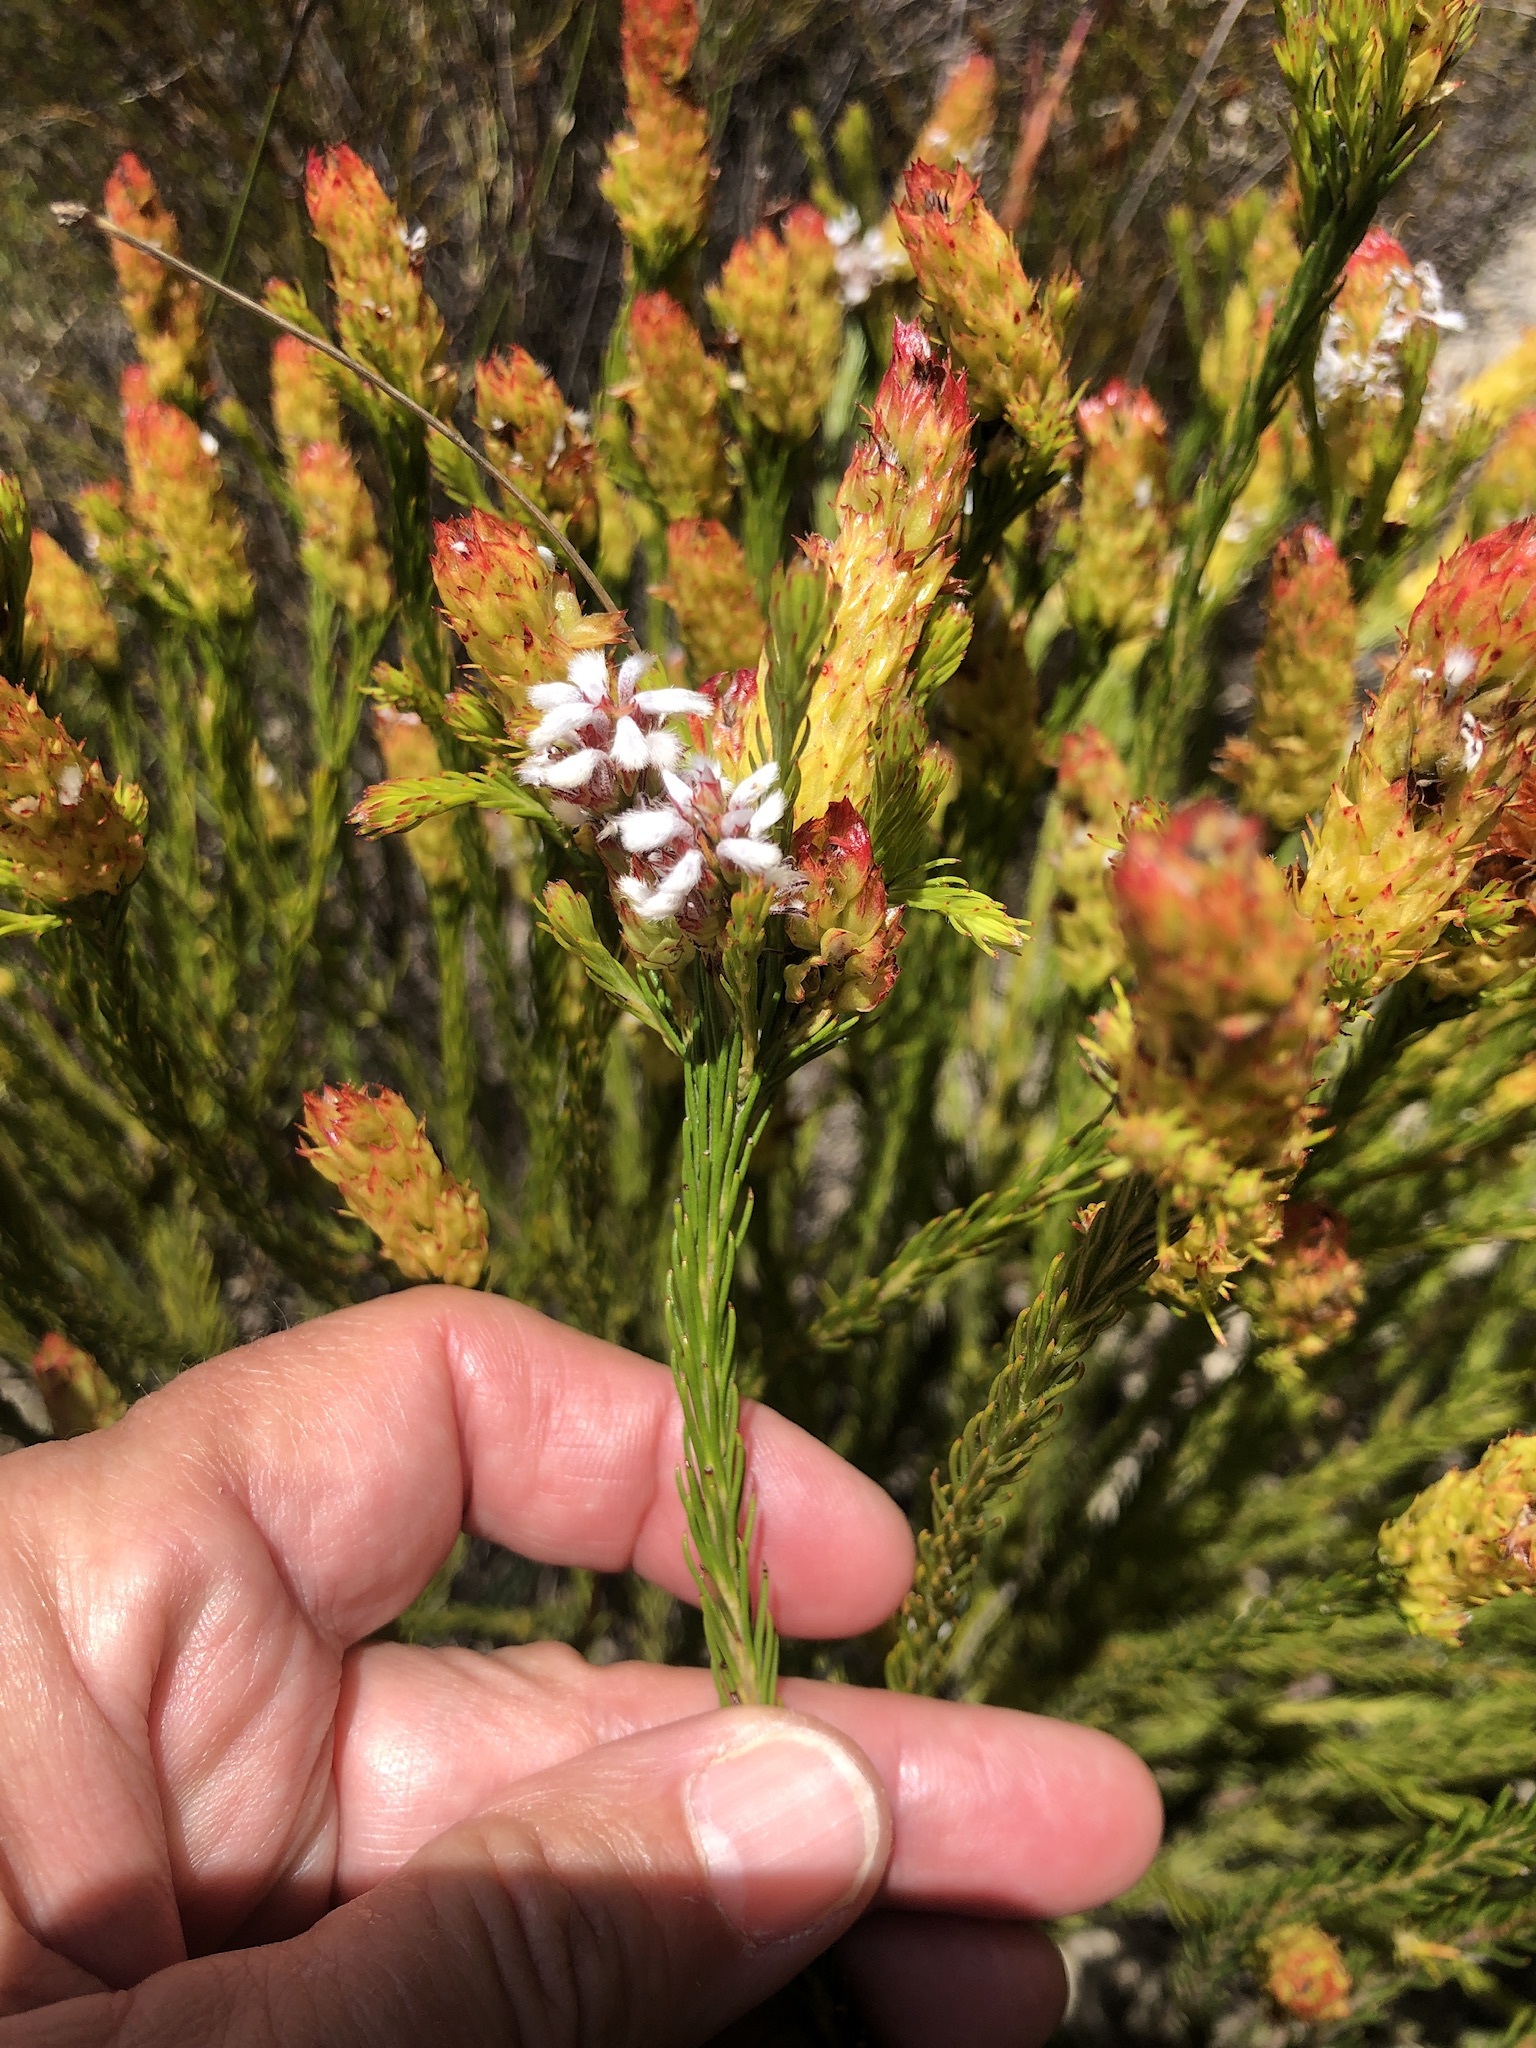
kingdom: Plantae
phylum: Tracheophyta
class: Magnoliopsida
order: Proteales
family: Proteaceae
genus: Spatalla
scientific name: Spatalla squamata
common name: Silky spoon
